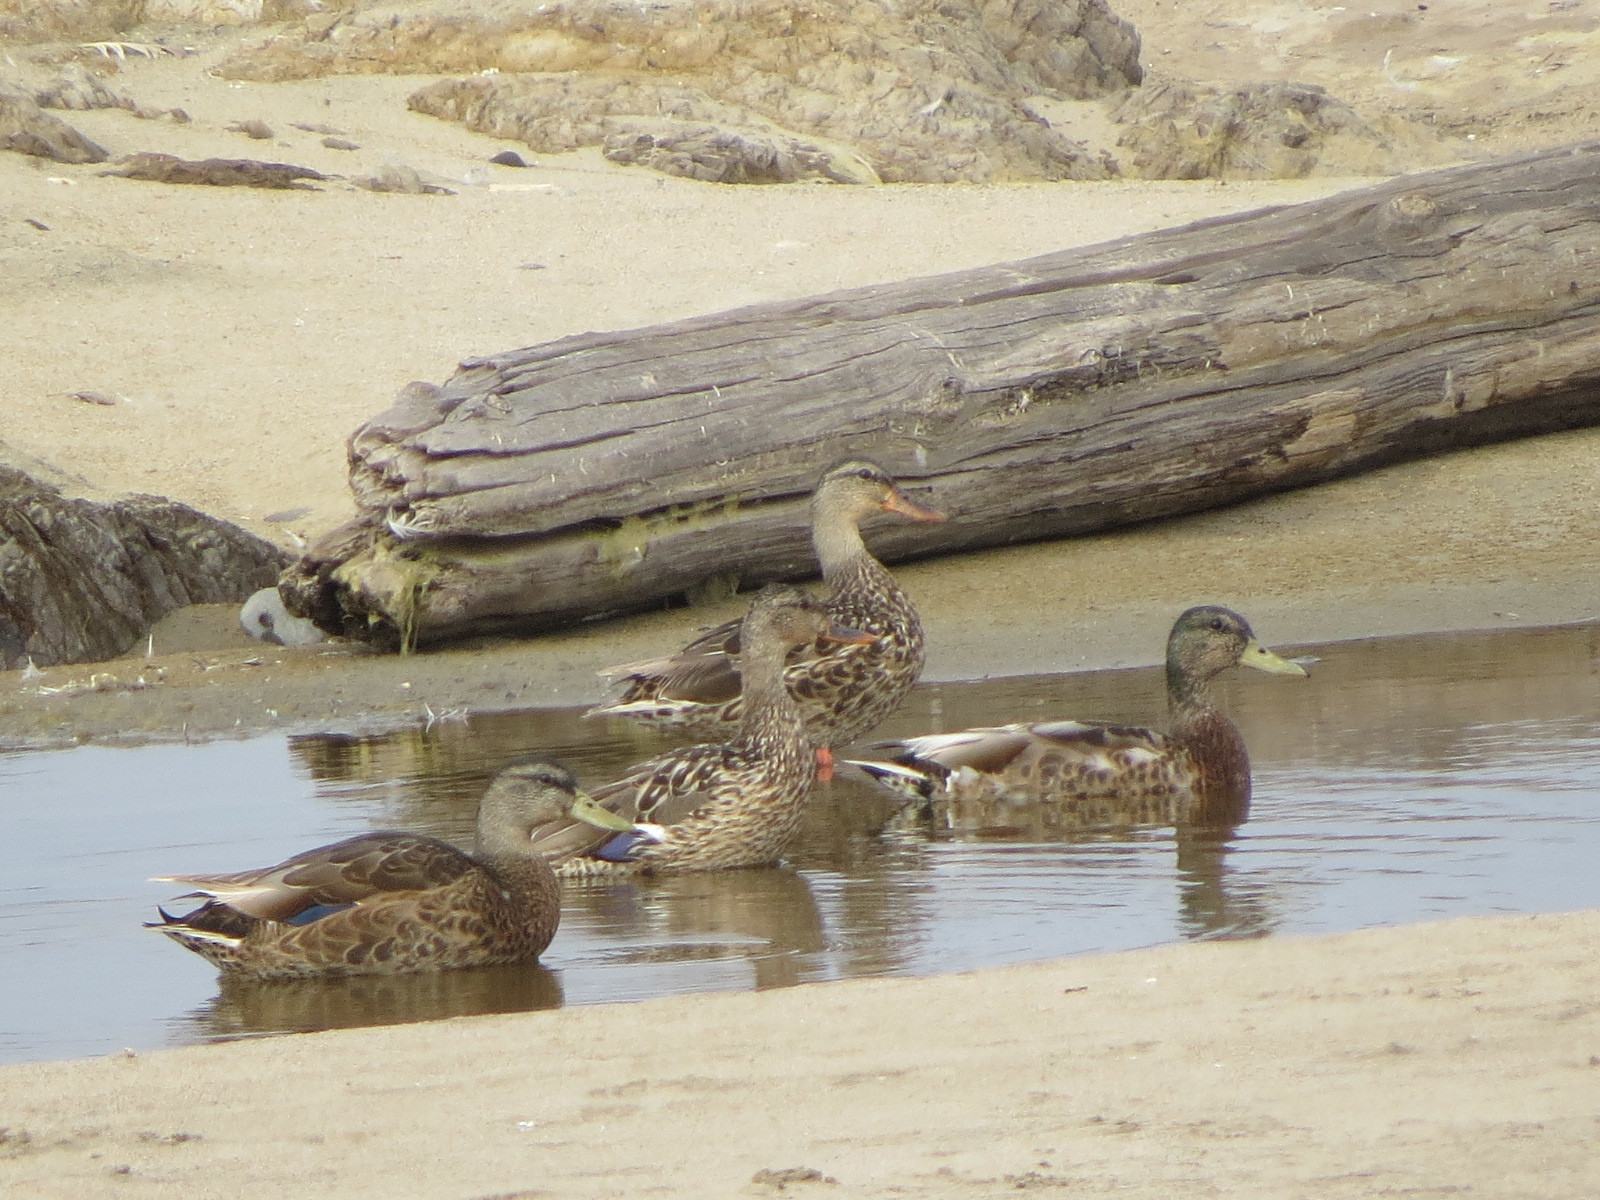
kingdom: Animalia
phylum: Chordata
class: Aves
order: Anseriformes
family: Anatidae
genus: Anas
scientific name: Anas platyrhynchos
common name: Mallard
